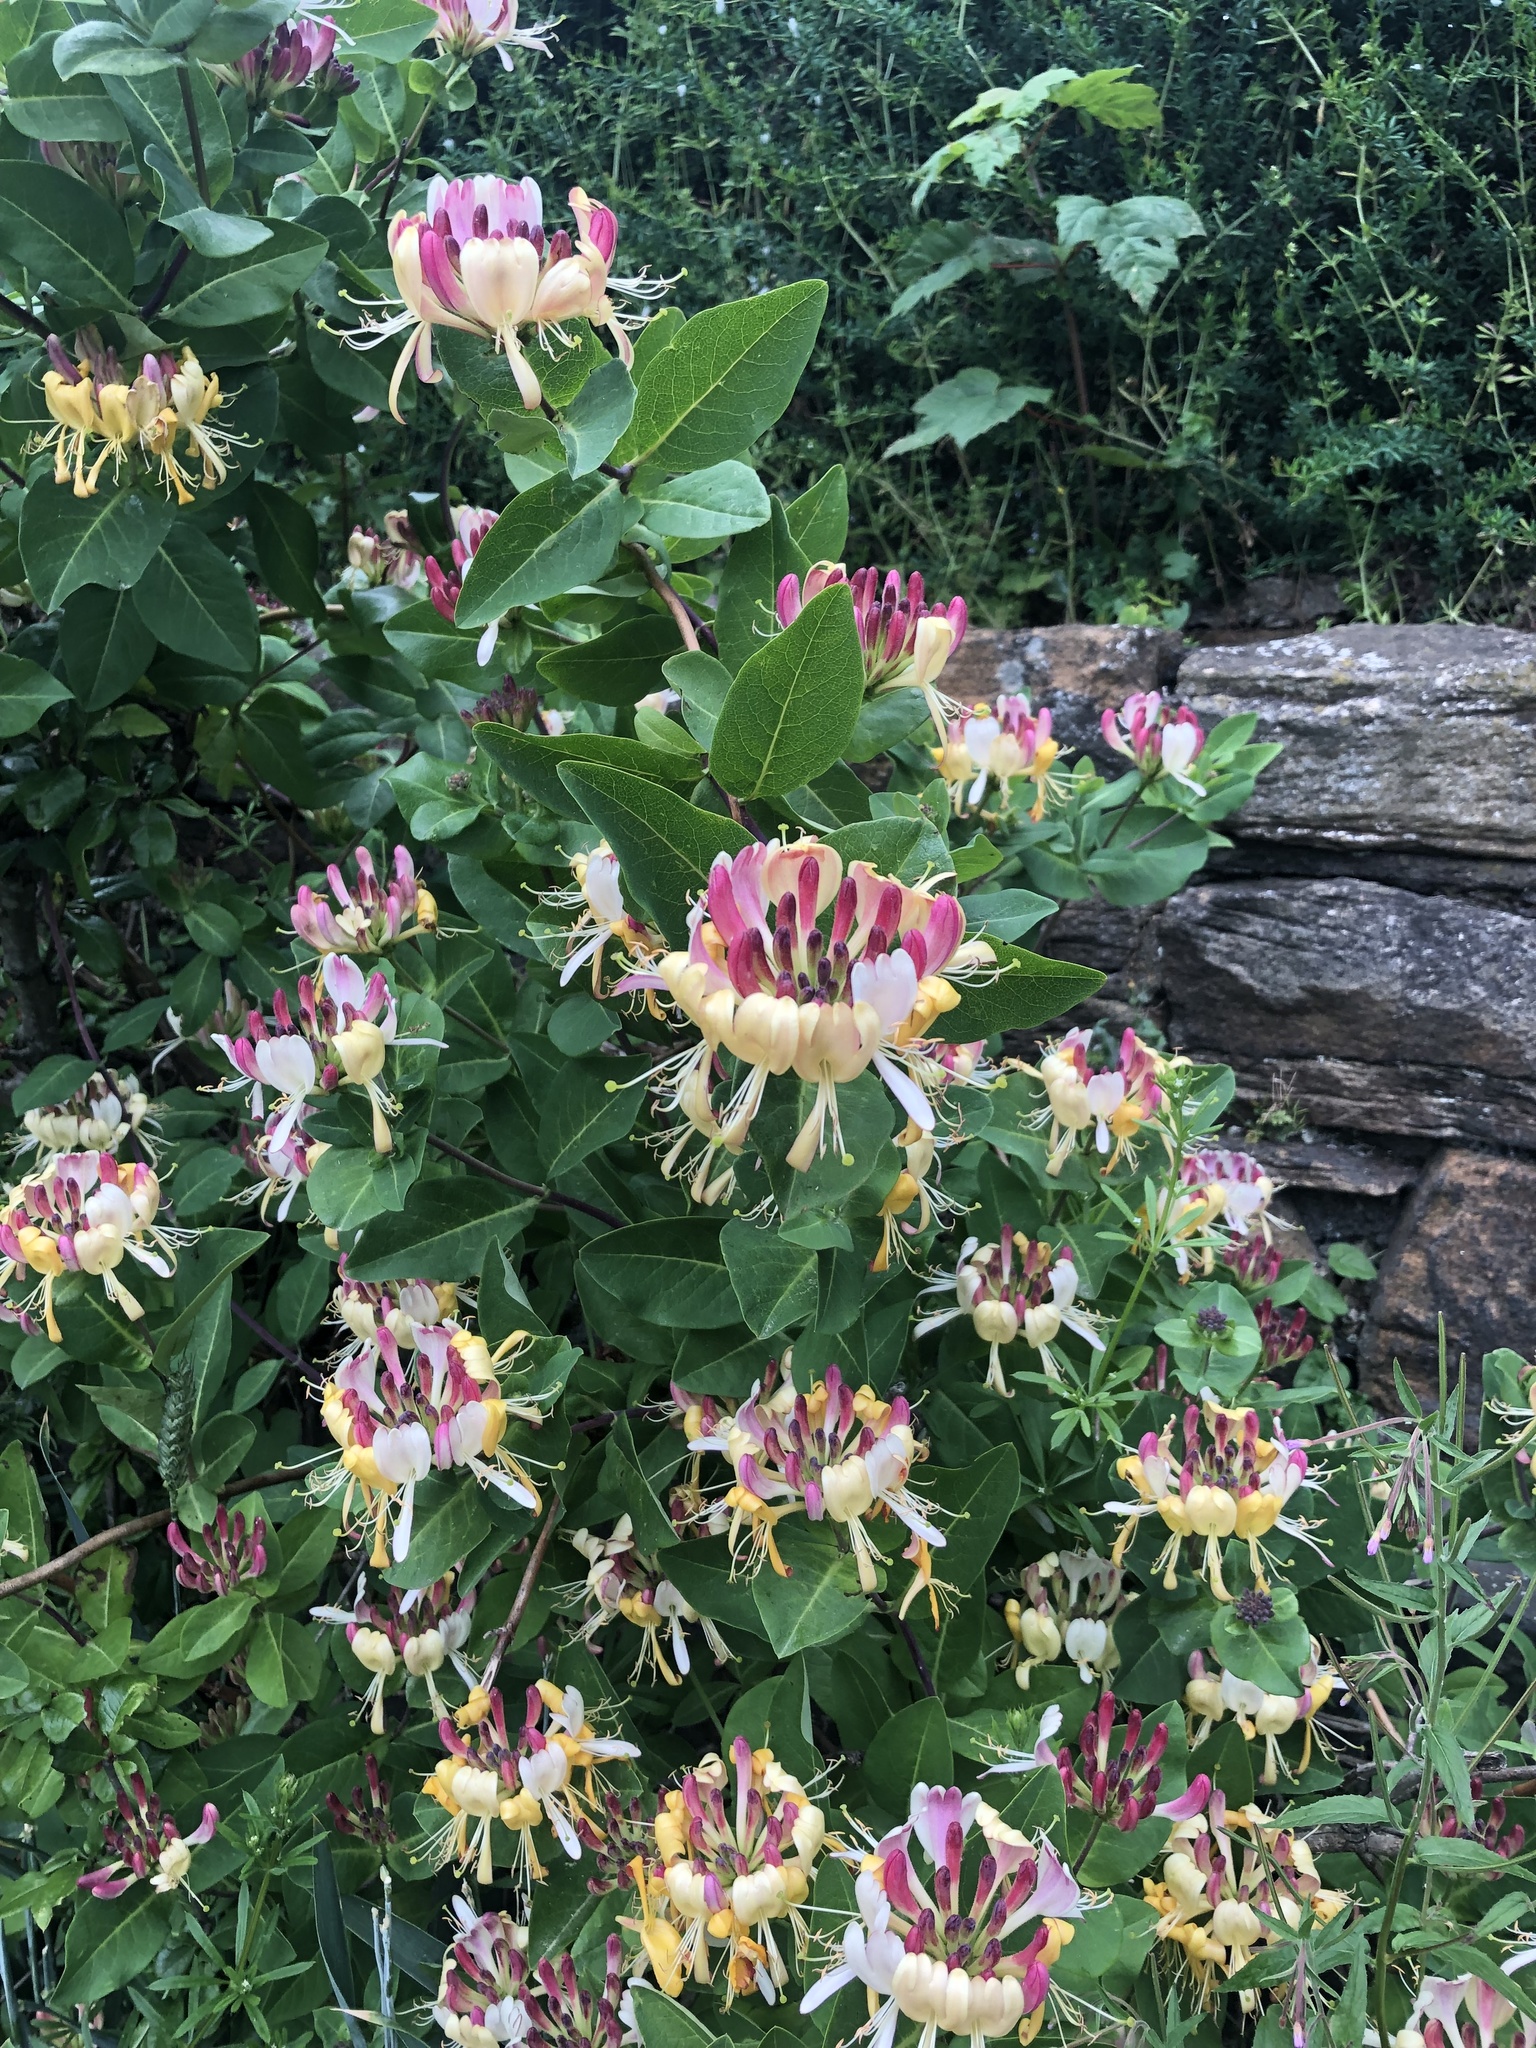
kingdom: Plantae
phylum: Tracheophyta
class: Magnoliopsida
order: Dipsacales
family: Caprifoliaceae
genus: Lonicera
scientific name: Lonicera periclymenum
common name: European honeysuckle
